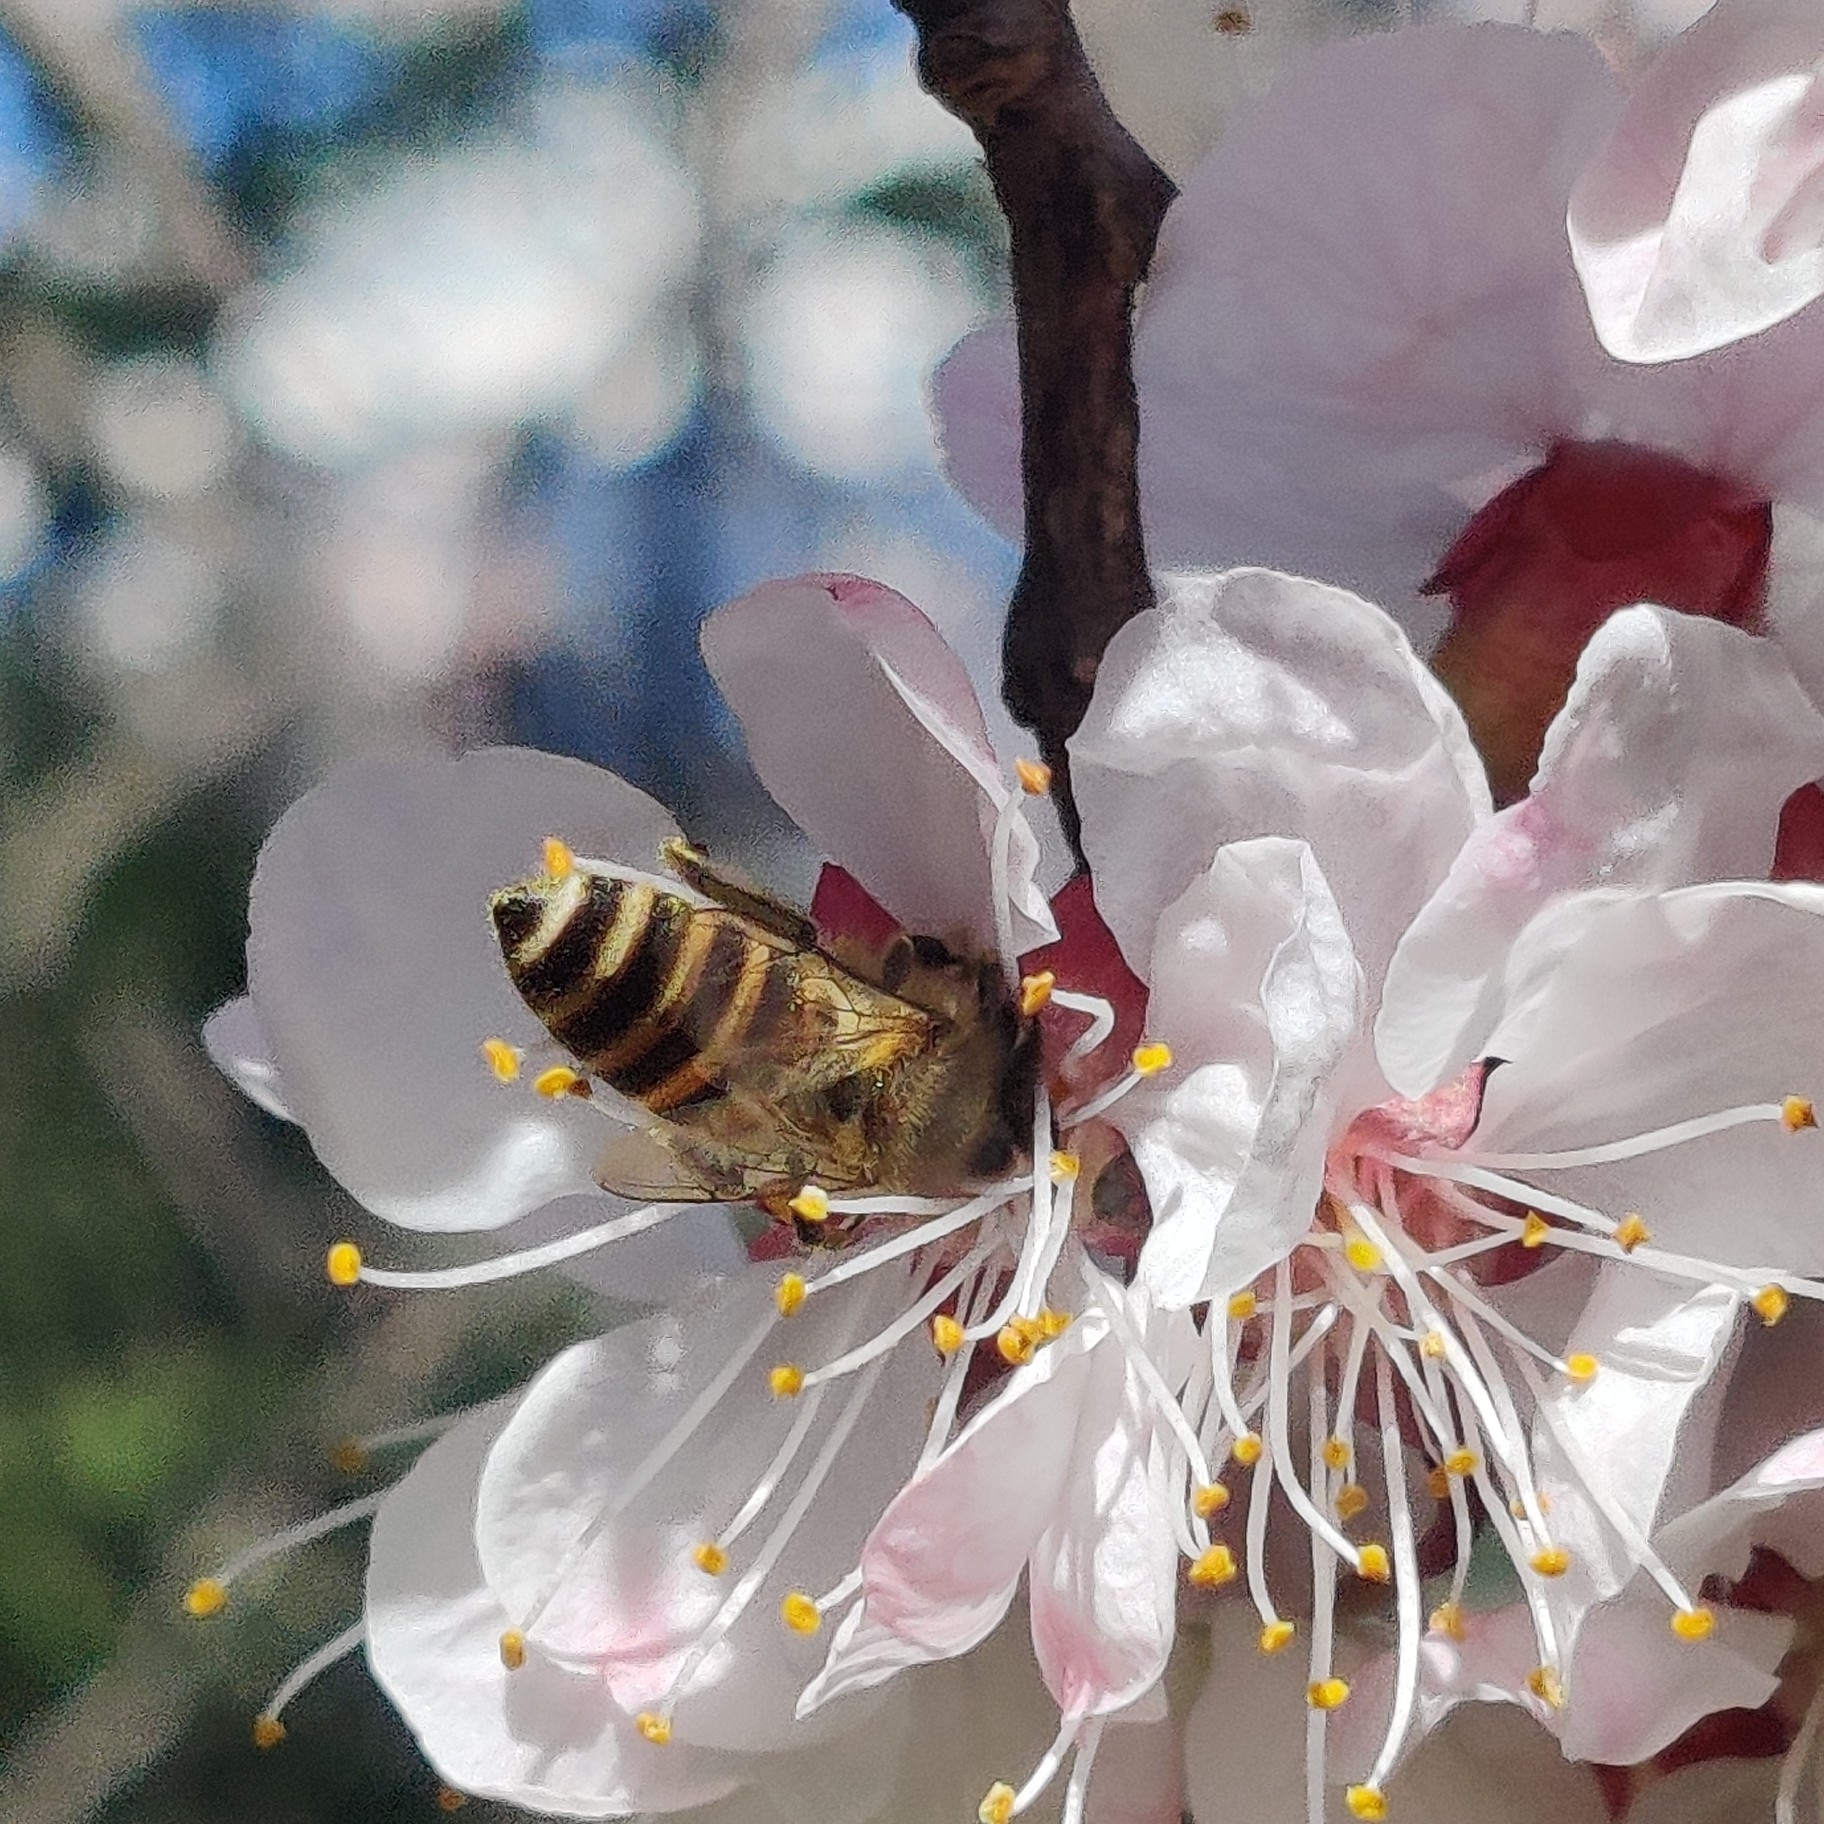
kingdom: Animalia
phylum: Arthropoda
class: Insecta
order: Hymenoptera
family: Apidae
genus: Apis
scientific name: Apis cerana
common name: Honey bee
